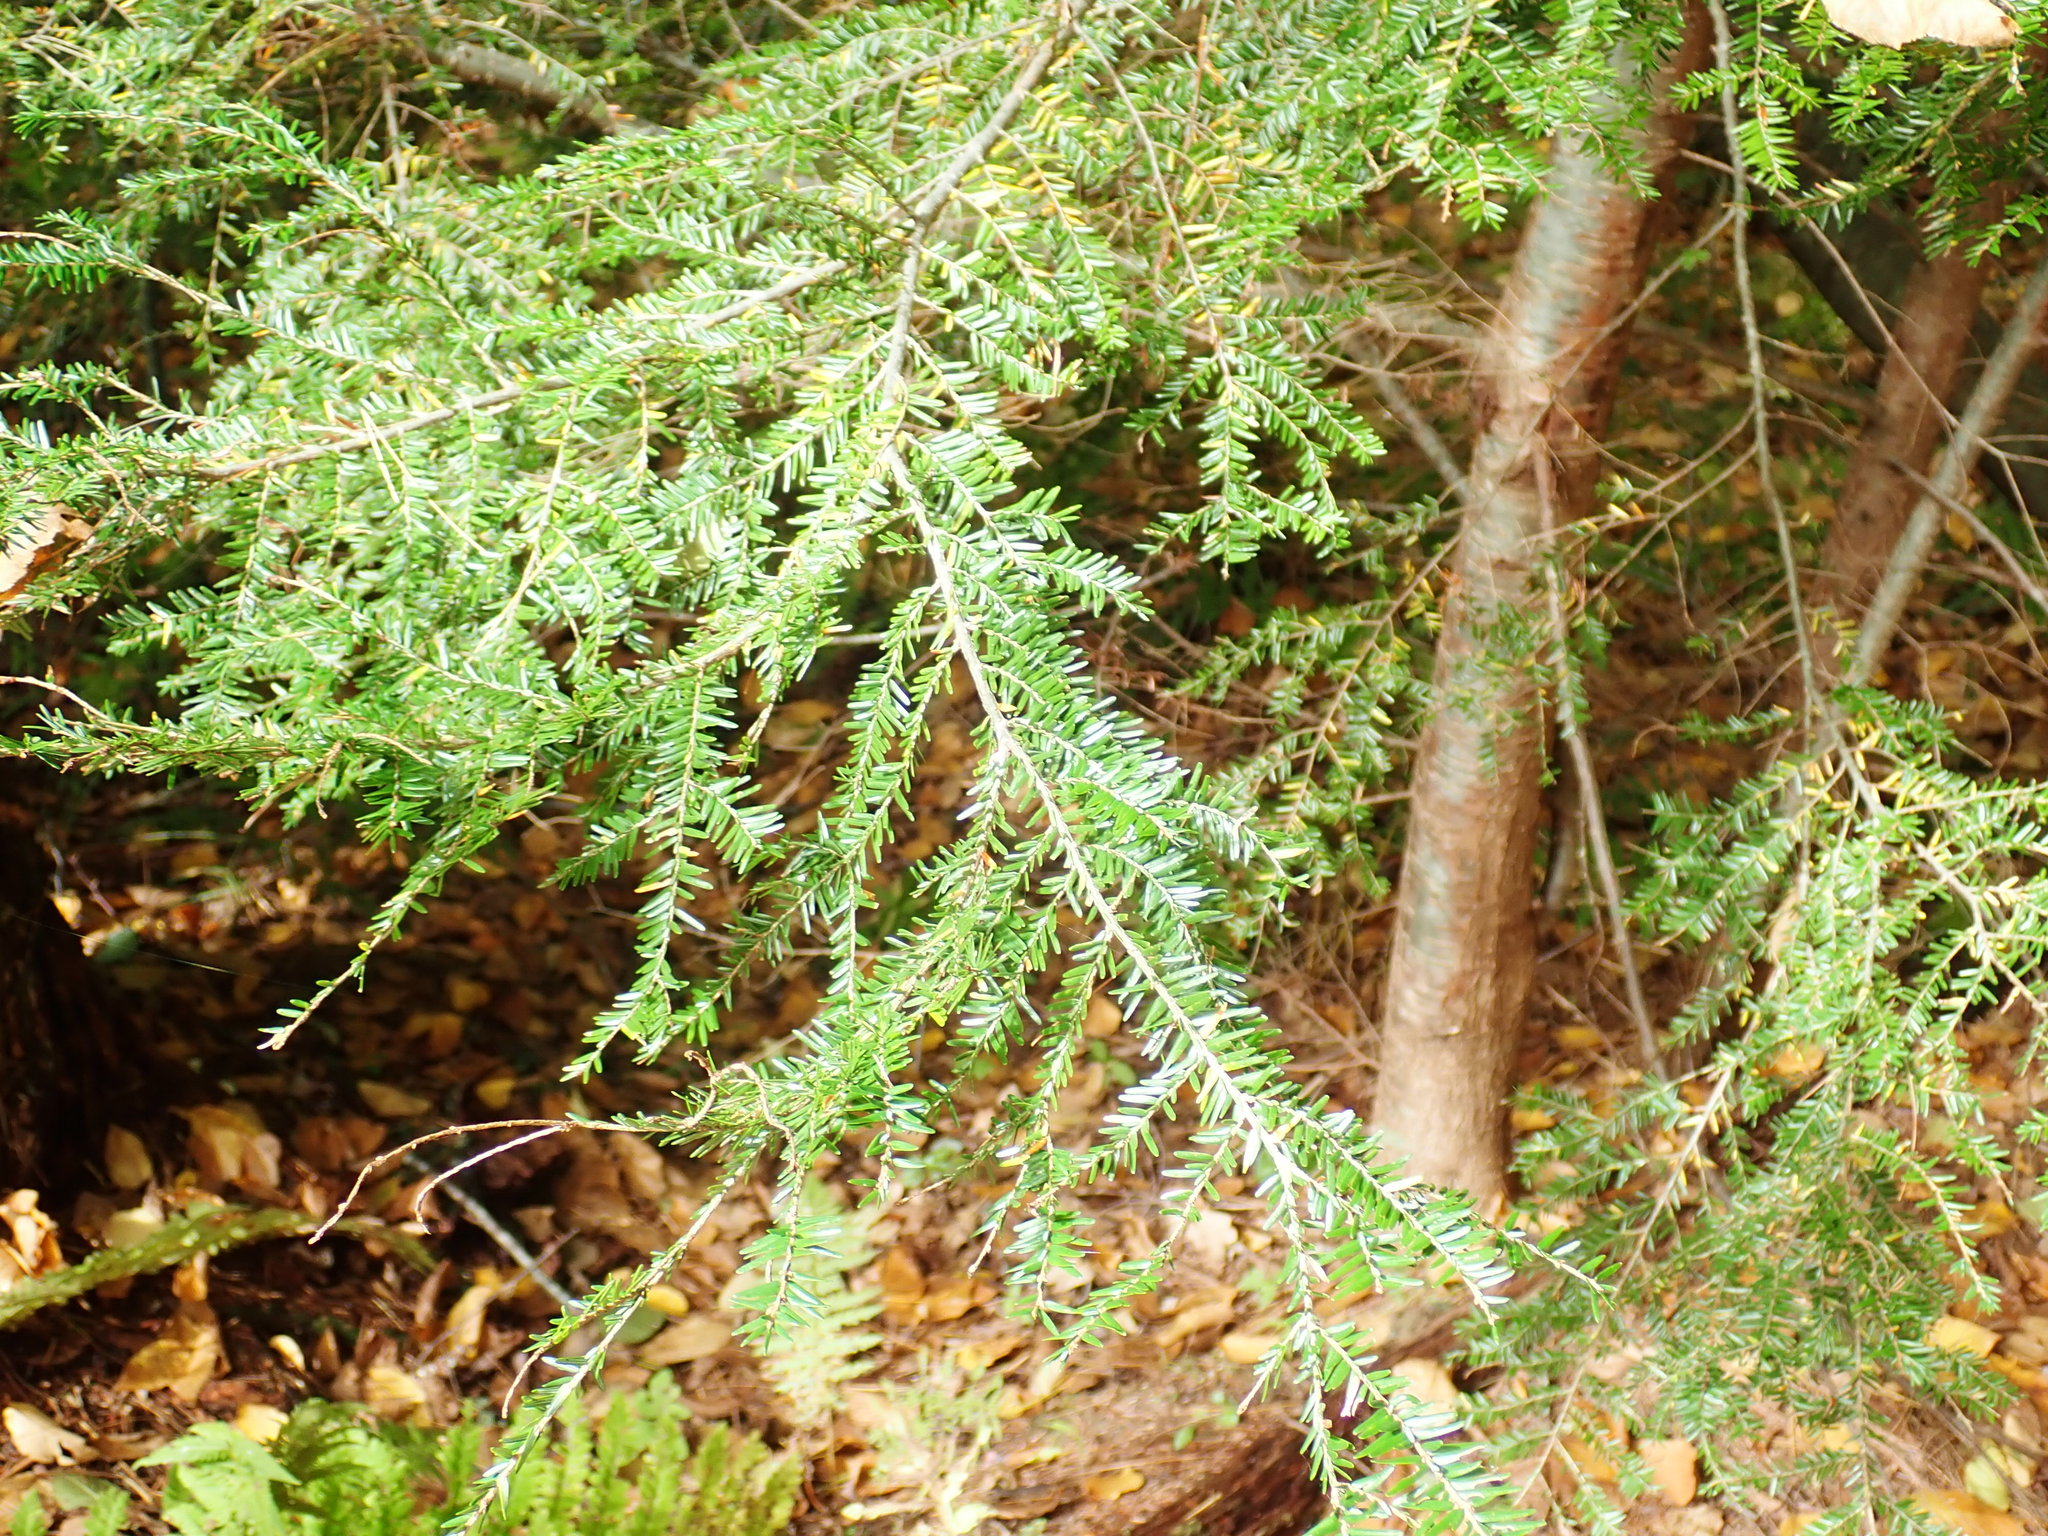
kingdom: Plantae
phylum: Tracheophyta
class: Pinopsida
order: Pinales
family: Pinaceae
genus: Tsuga
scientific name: Tsuga canadensis
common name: Eastern hemlock
